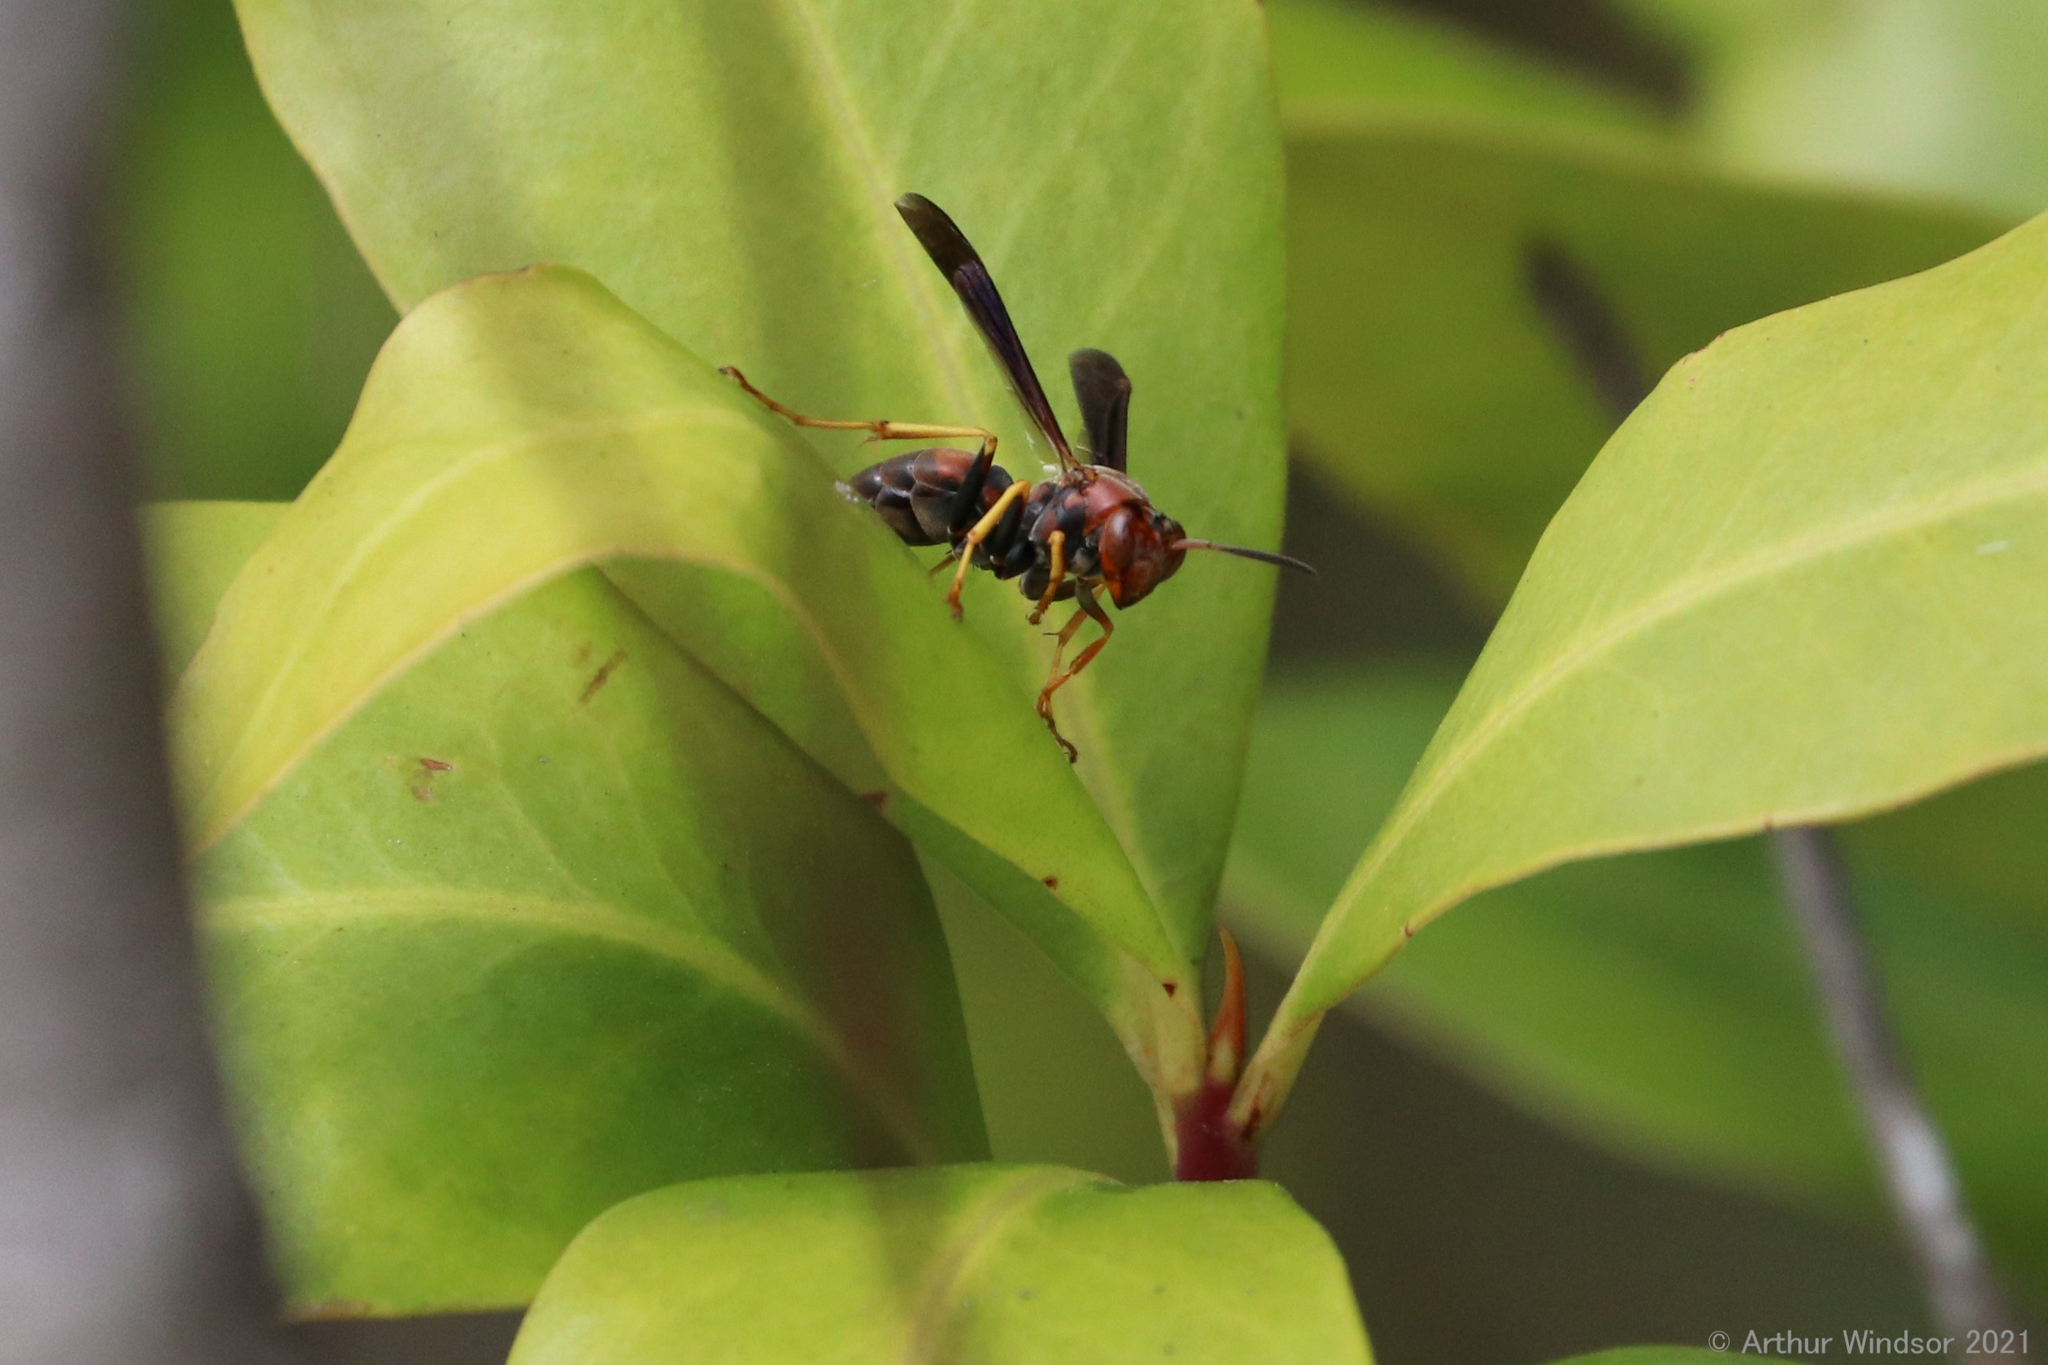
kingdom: Animalia
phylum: Arthropoda
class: Insecta
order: Hymenoptera
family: Eumenidae
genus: Polistes
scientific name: Polistes fuscatus
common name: Dark paper wasp
